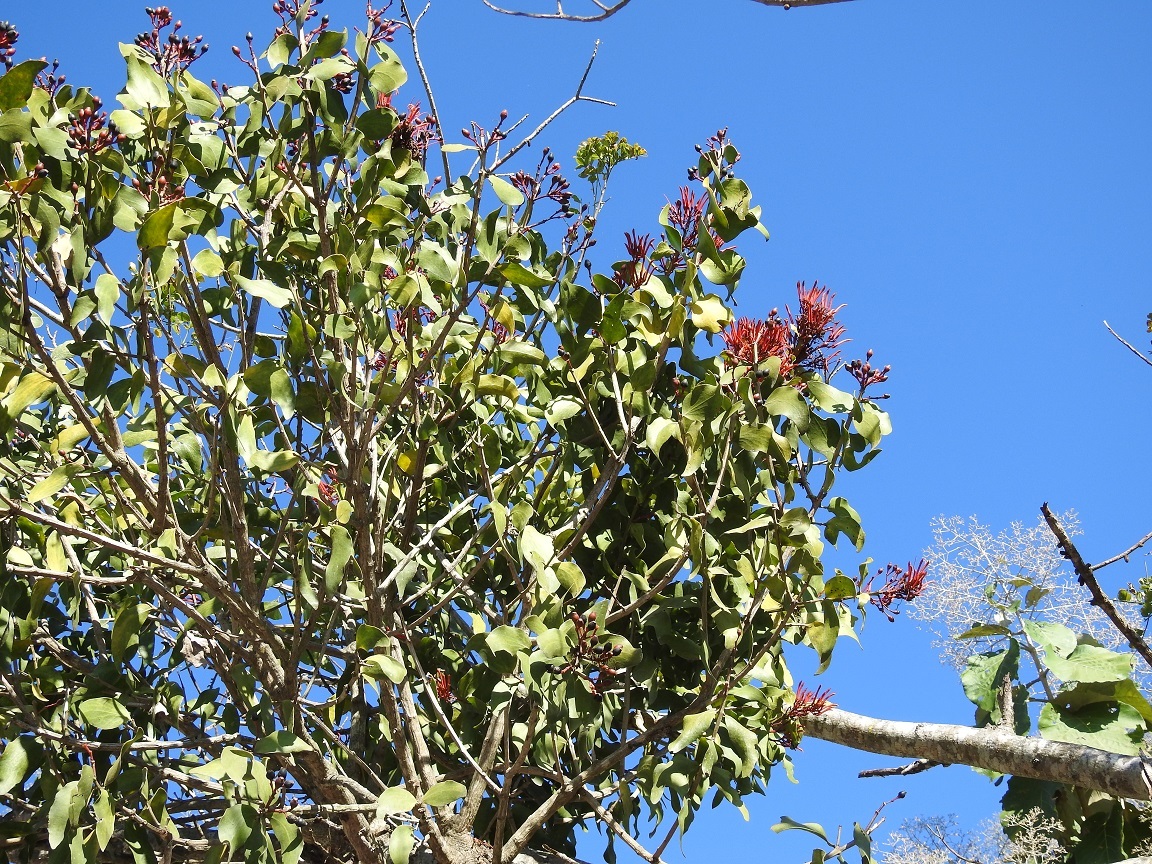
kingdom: Plantae
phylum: Tracheophyta
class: Magnoliopsida
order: Santalales
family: Loranthaceae
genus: Psittacanthus
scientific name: Psittacanthus rhynchanthus
